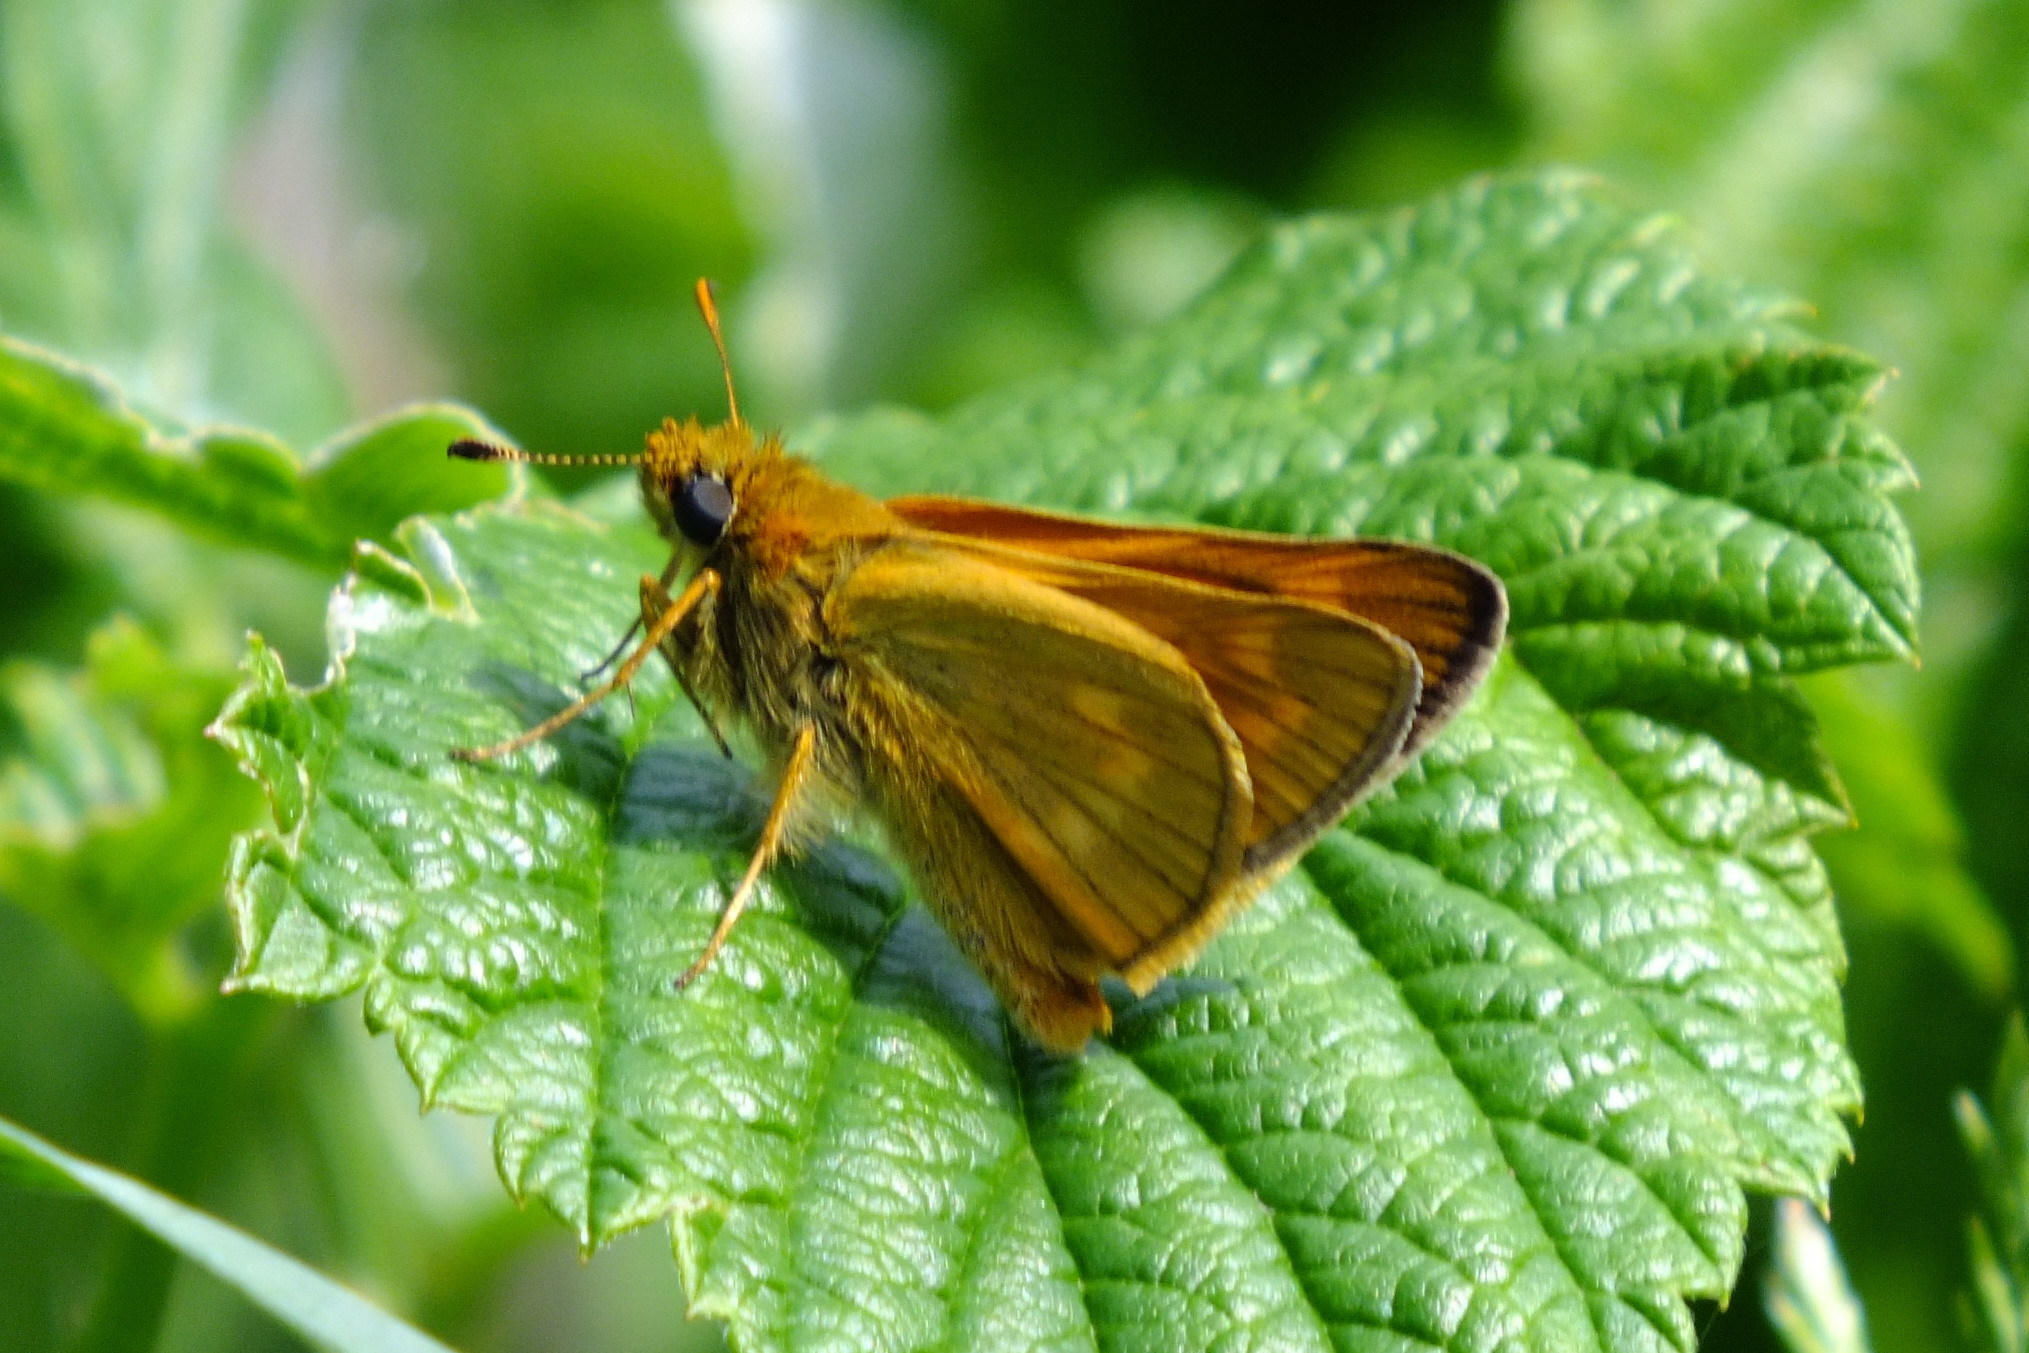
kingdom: Animalia
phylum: Arthropoda
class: Insecta
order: Lepidoptera
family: Hesperiidae
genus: Ochlodes
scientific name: Ochlodes venata
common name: Large skipper
